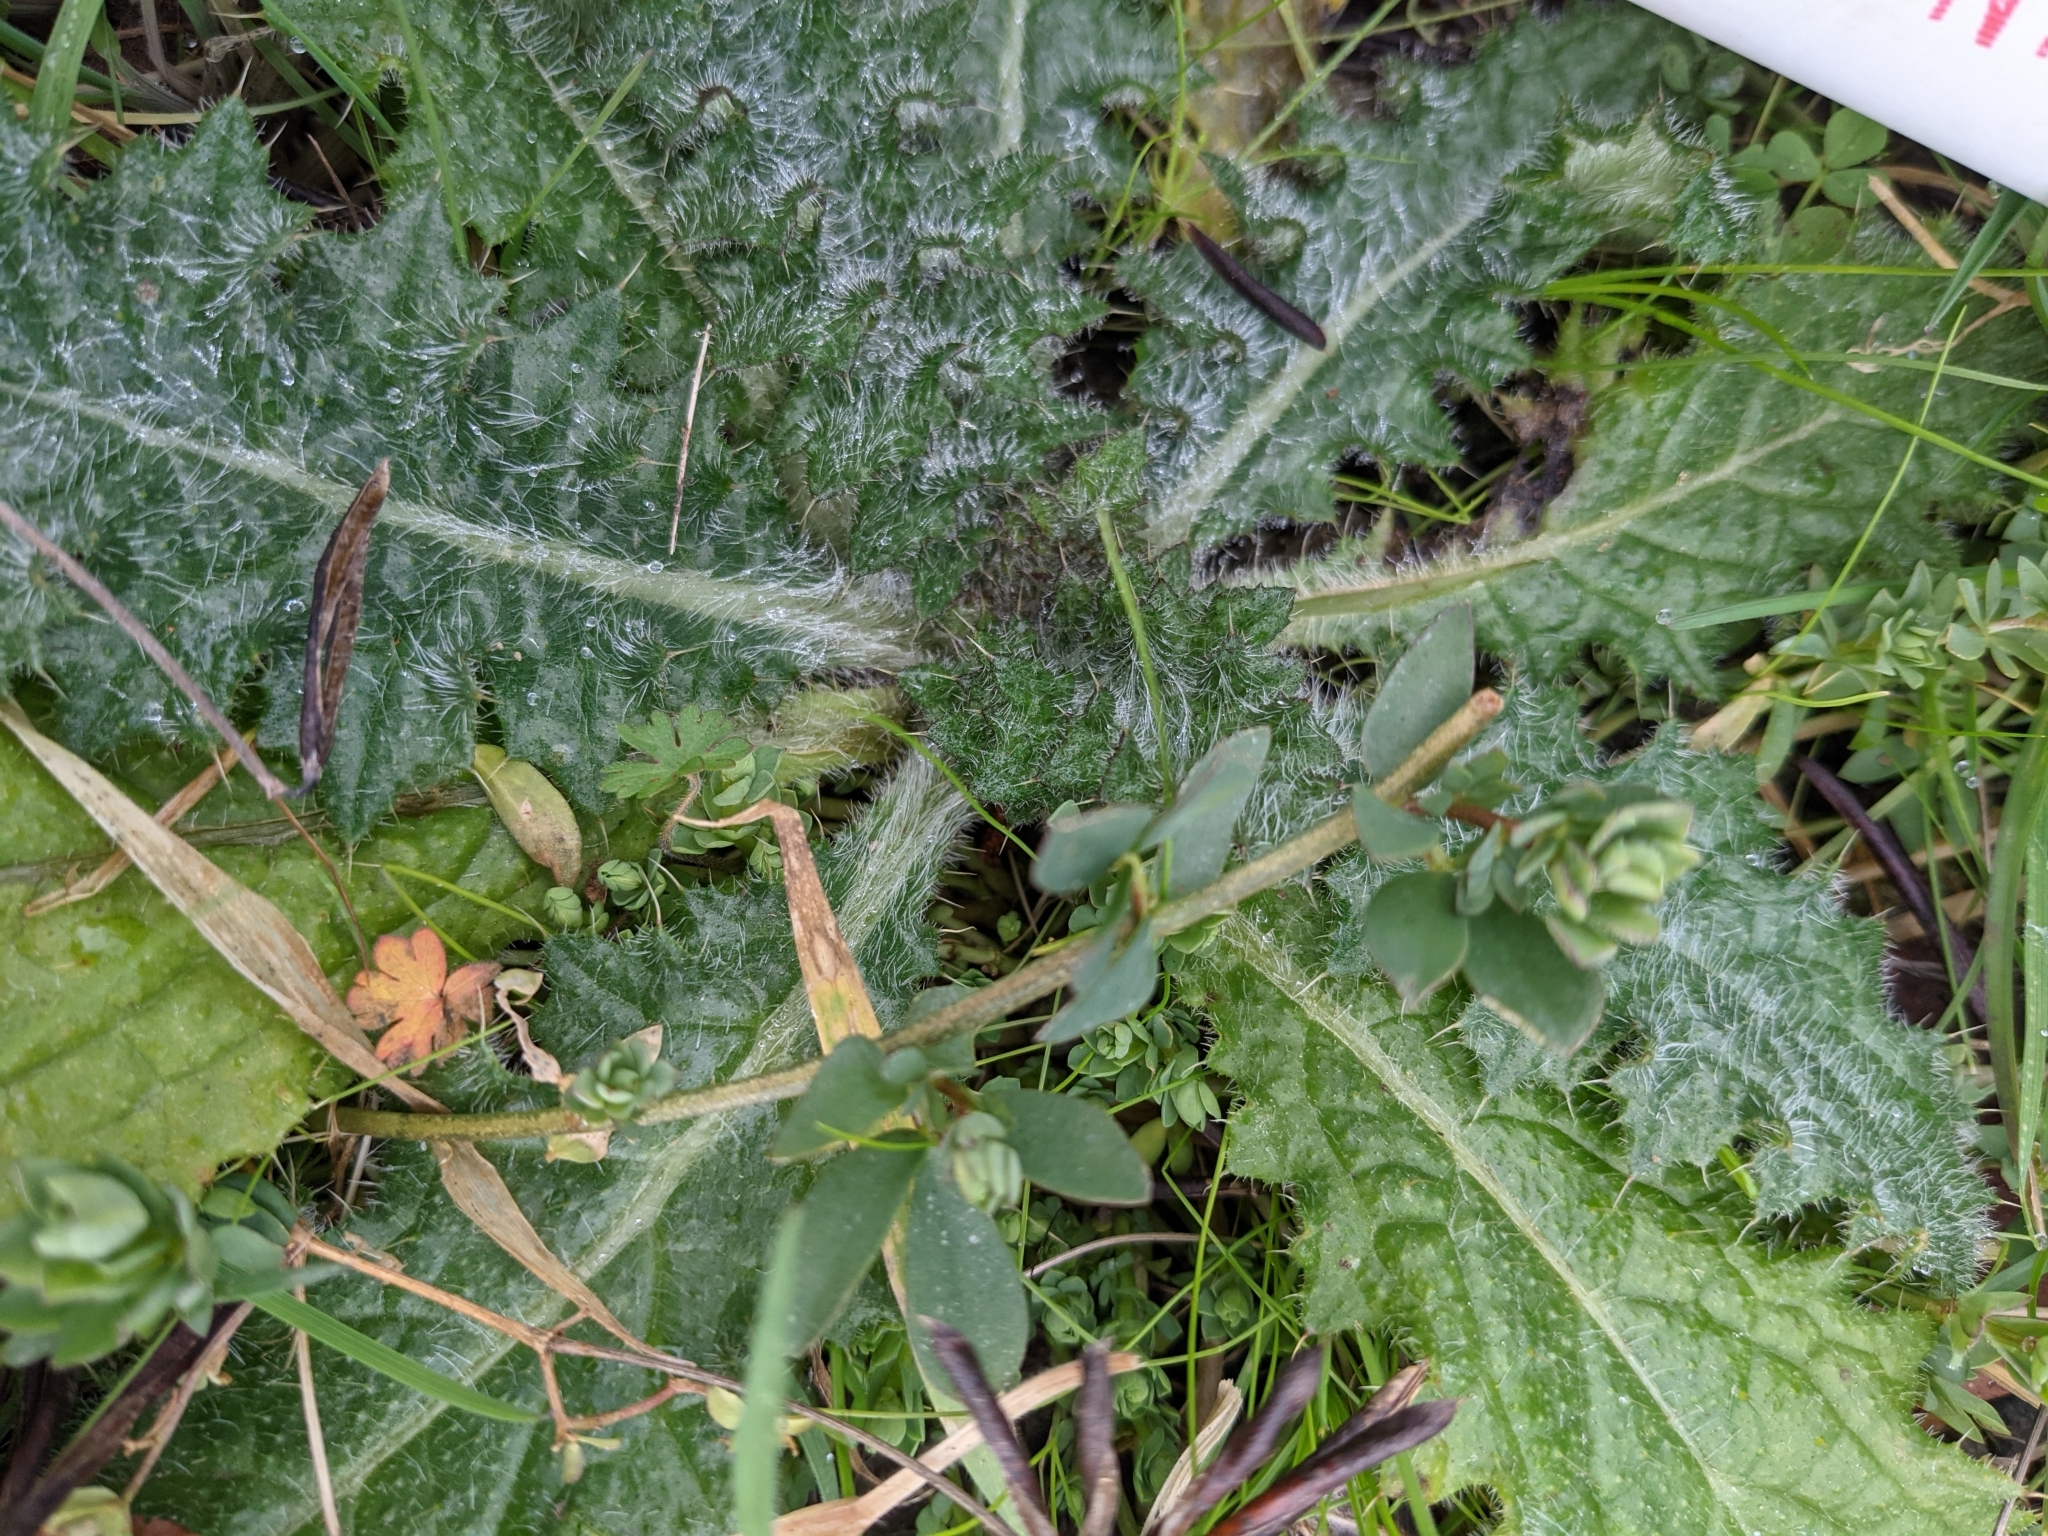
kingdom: Plantae
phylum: Tracheophyta
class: Magnoliopsida
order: Asterales
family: Asteraceae
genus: Cirsium
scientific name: Cirsium vulgare
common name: Bull thistle
